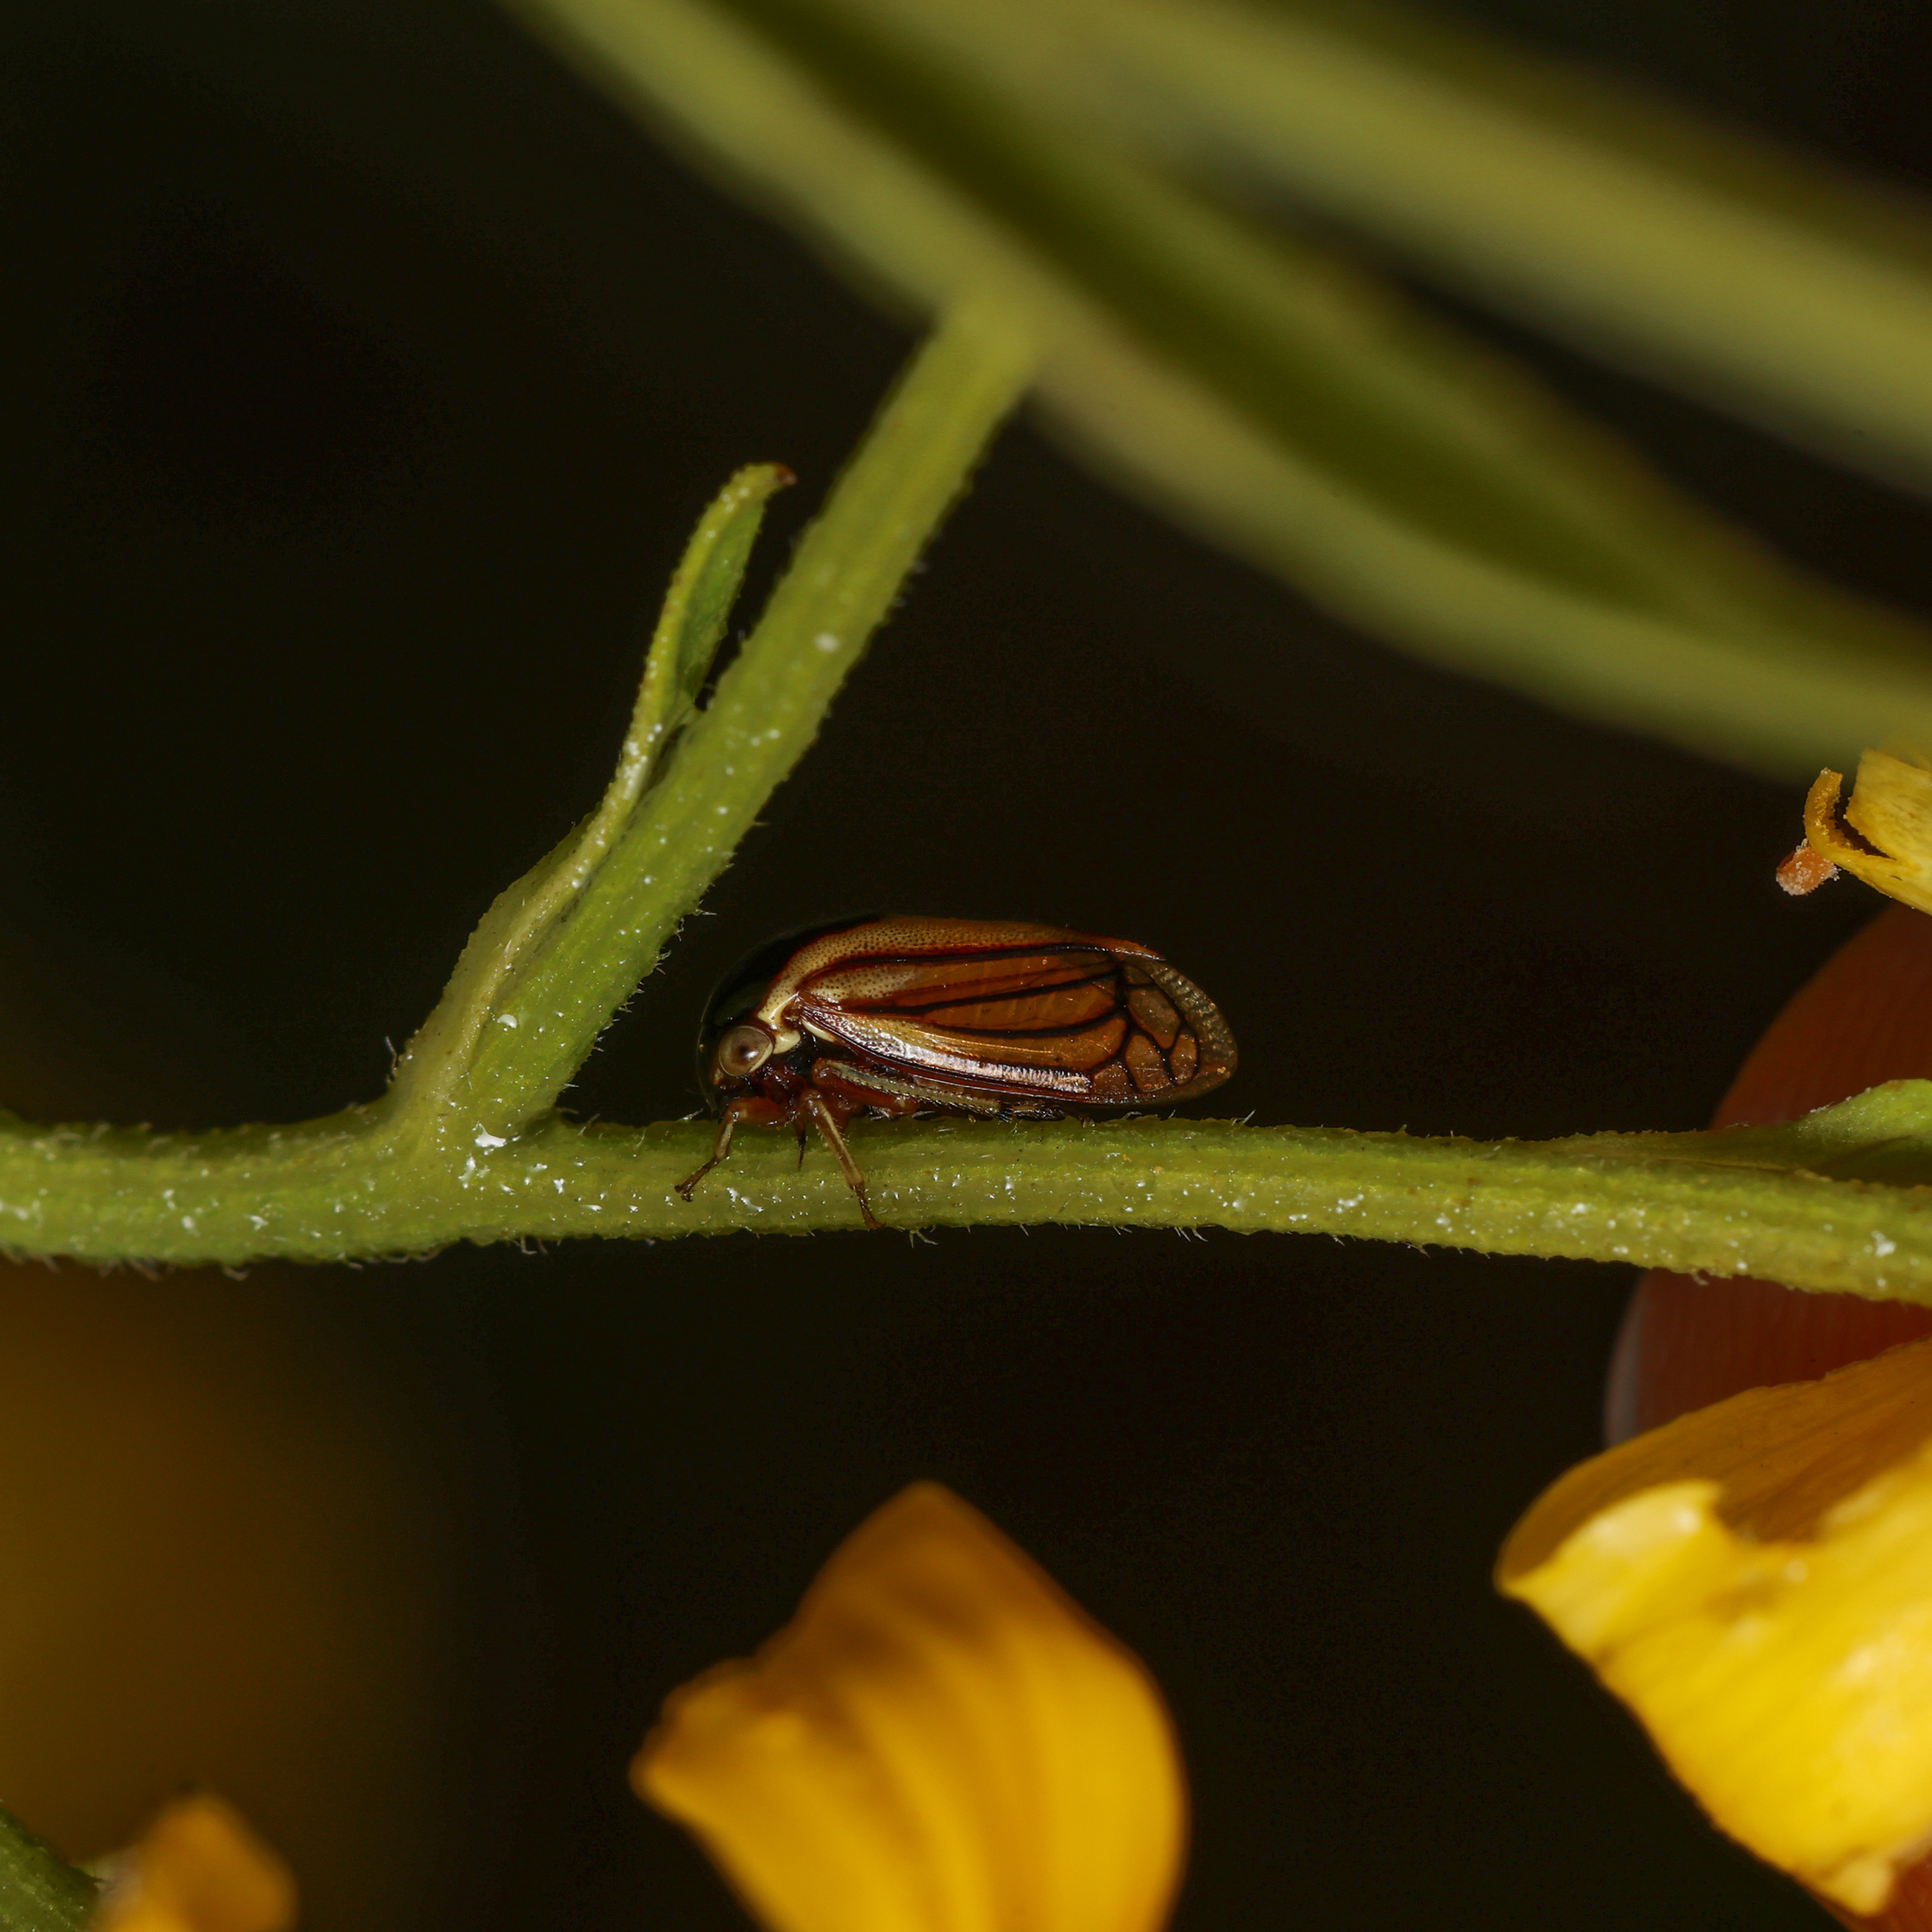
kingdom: Animalia
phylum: Arthropoda
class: Insecta
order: Hemiptera
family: Membracidae
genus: Acutalis
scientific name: Acutalis tartarea
